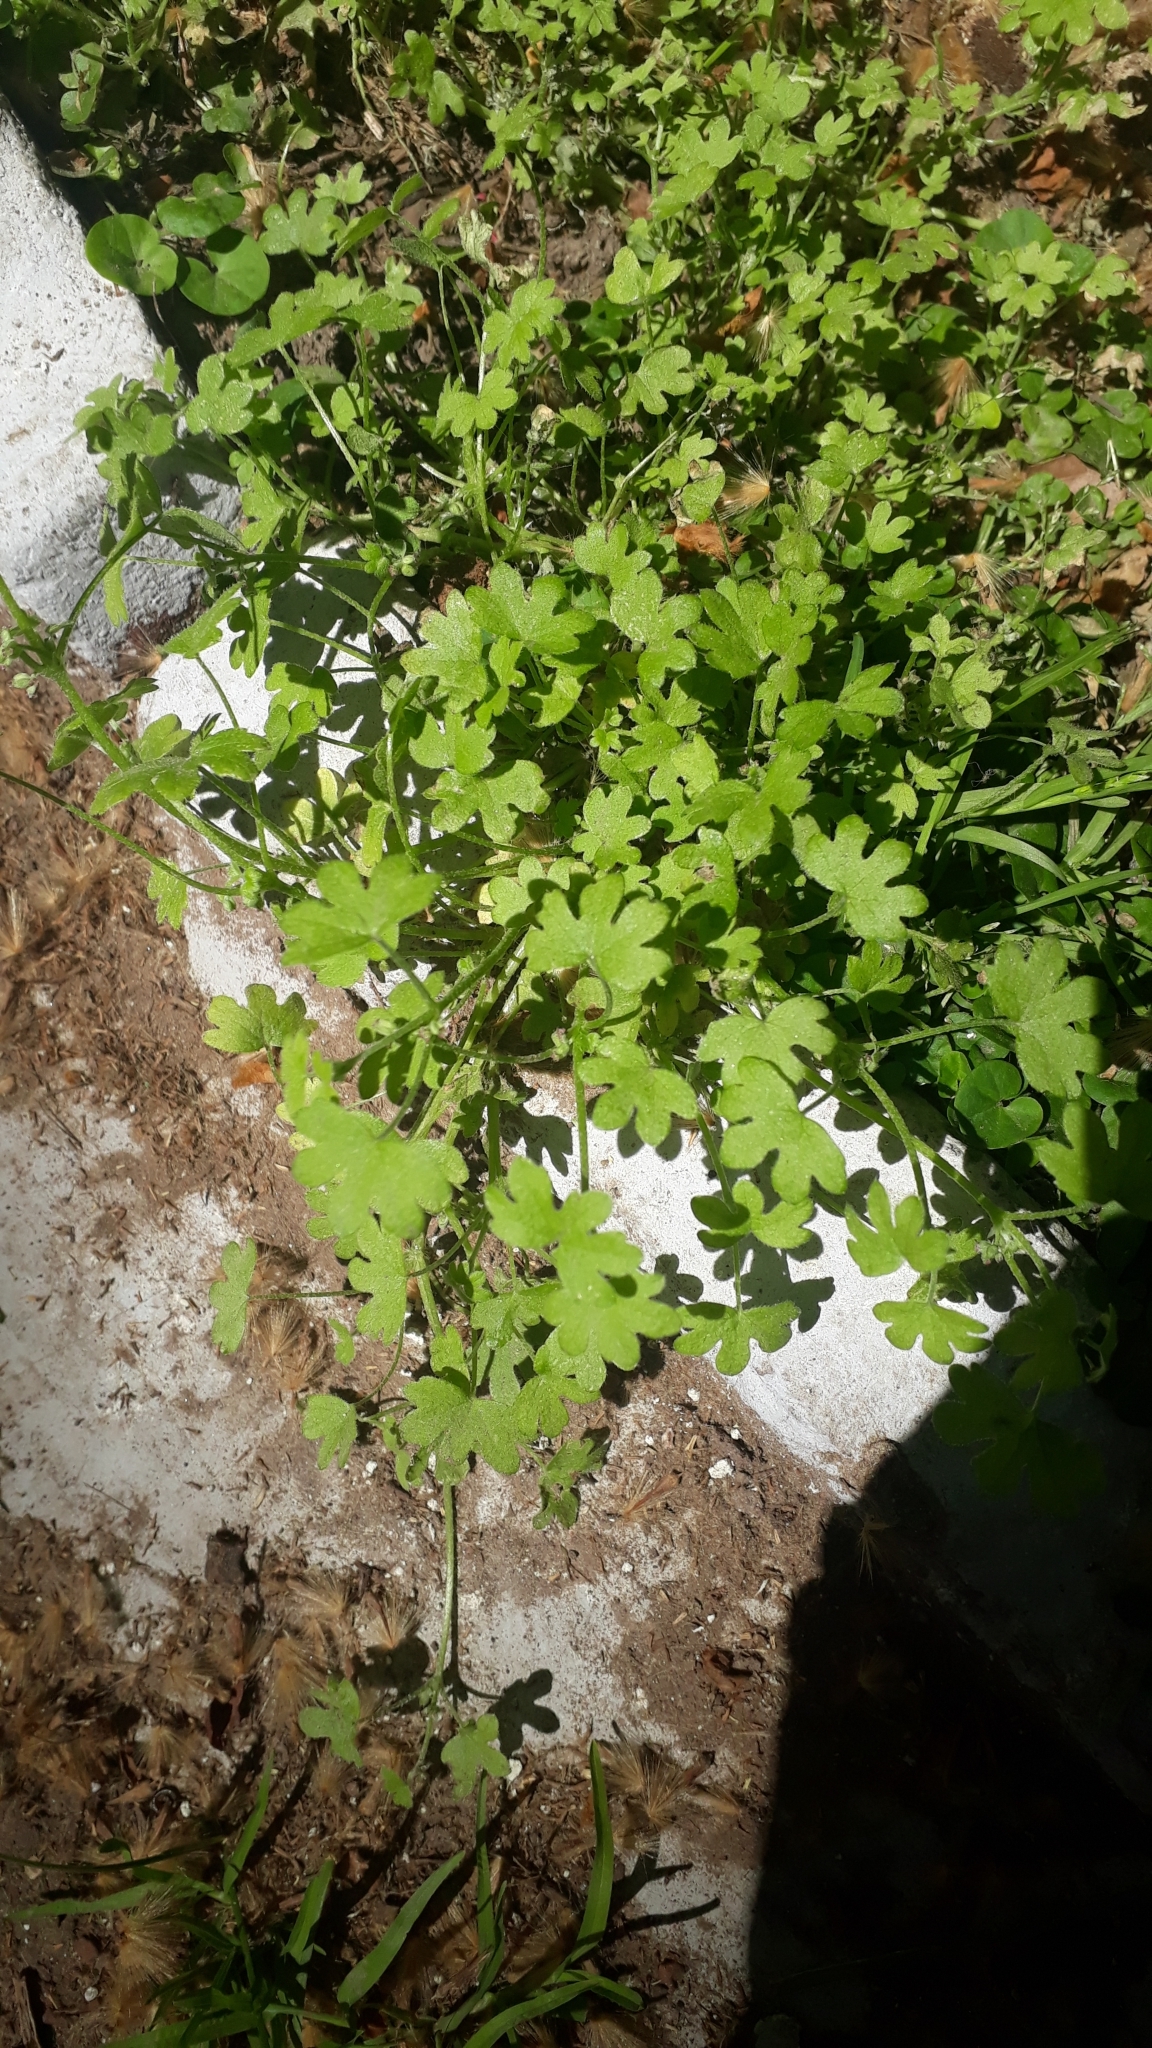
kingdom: Plantae
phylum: Tracheophyta
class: Magnoliopsida
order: Apiales
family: Apiaceae
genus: Bowlesia
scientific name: Bowlesia incana
